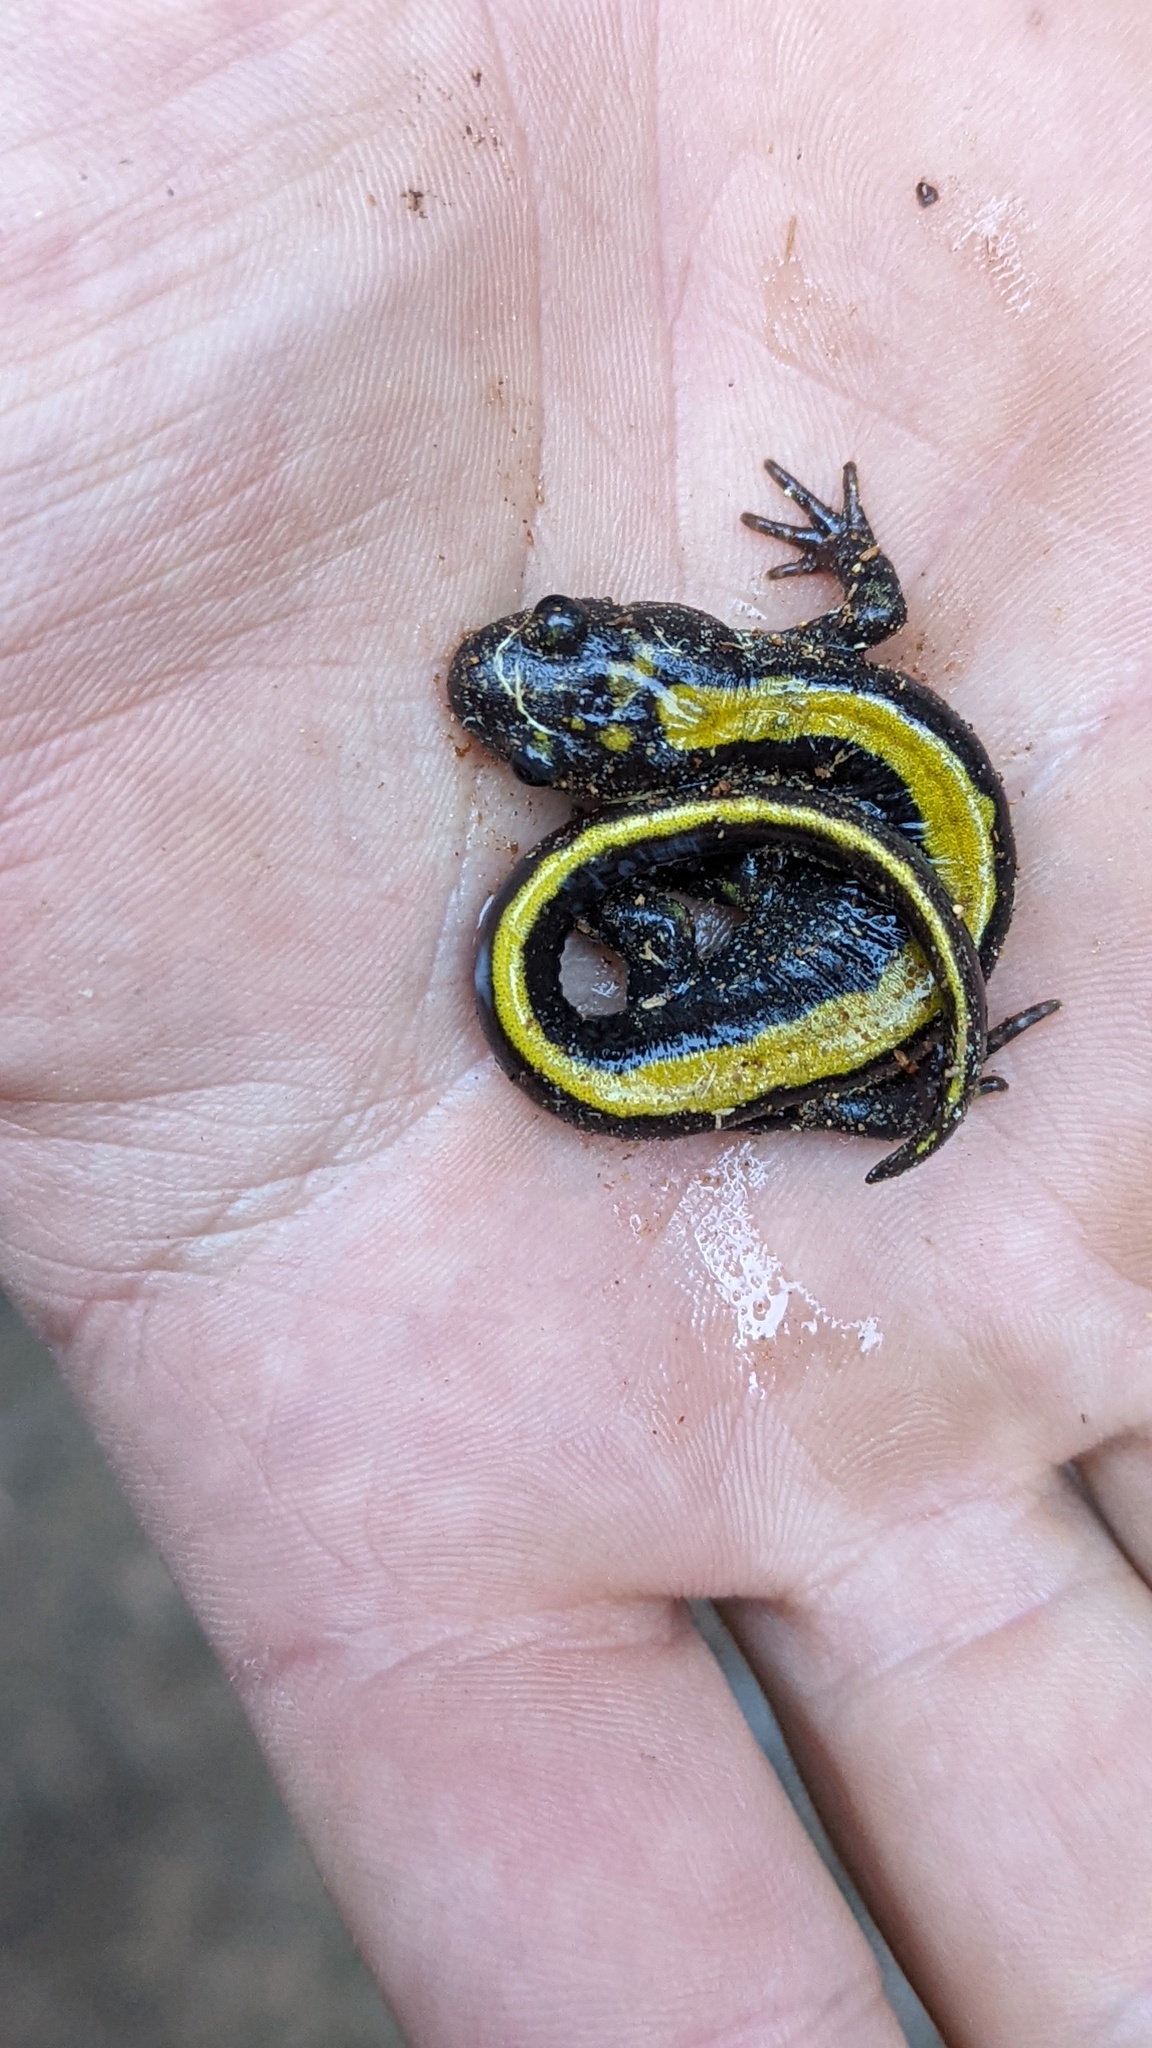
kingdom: Animalia
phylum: Chordata
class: Amphibia
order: Caudata
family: Ambystomatidae
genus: Ambystoma
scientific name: Ambystoma macrodactylum
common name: Long-toed salamander
